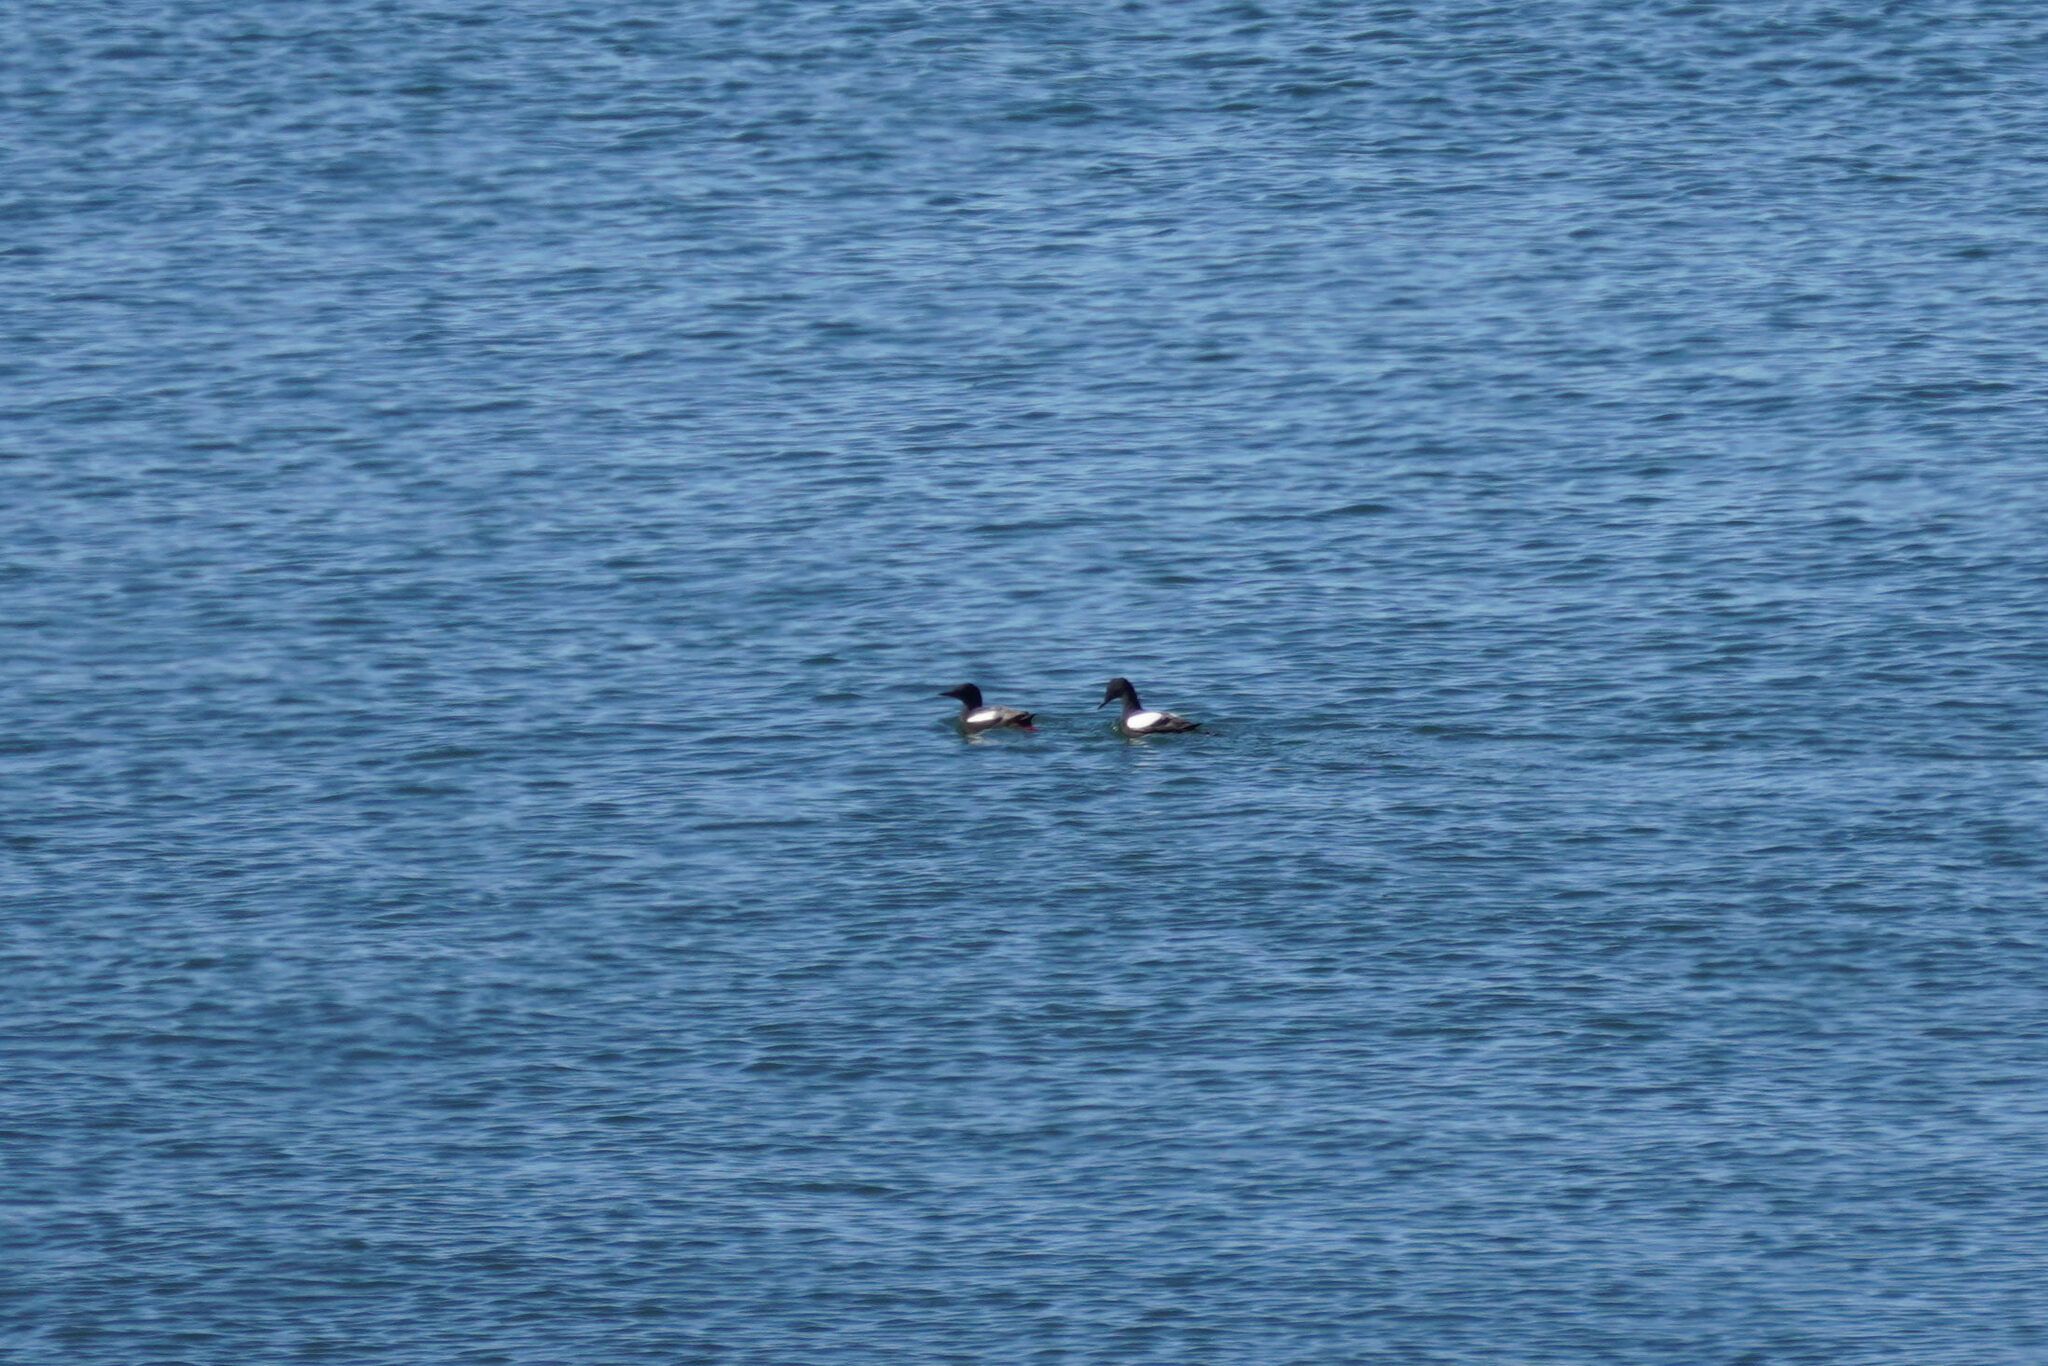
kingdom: Animalia
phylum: Chordata
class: Aves
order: Charadriiformes
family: Alcidae
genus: Cepphus
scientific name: Cepphus grylle
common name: Black guillemot
